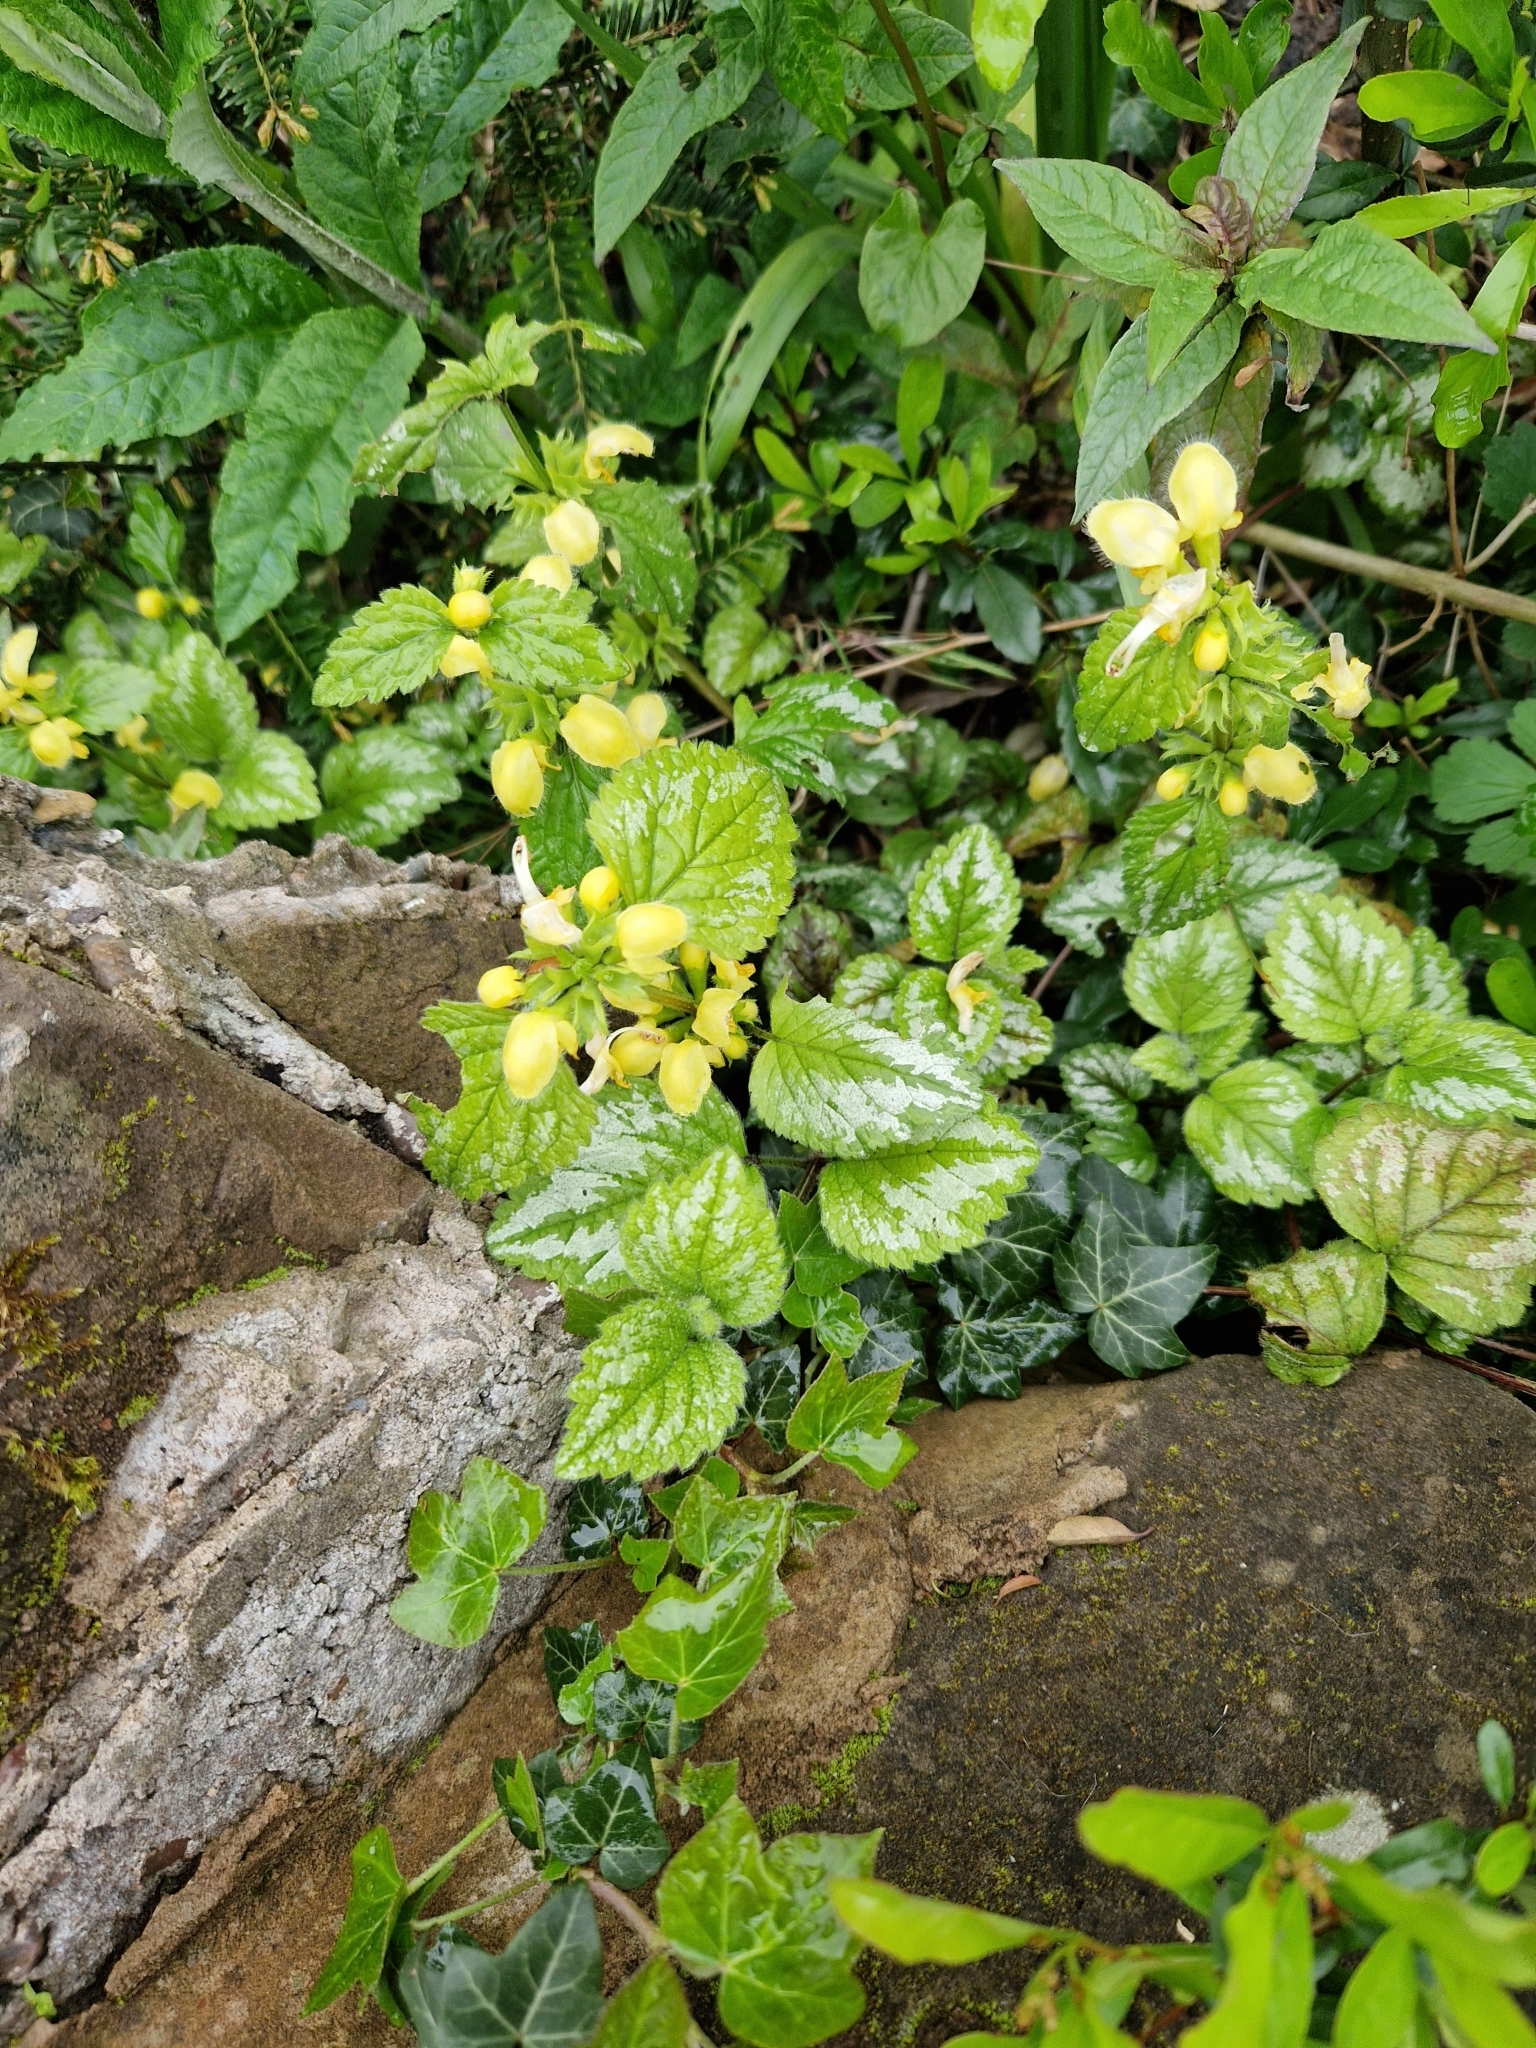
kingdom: Plantae
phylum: Tracheophyta
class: Magnoliopsida
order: Lamiales
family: Lamiaceae
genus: Lamium
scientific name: Lamium galeobdolon
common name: Yellow archangel
